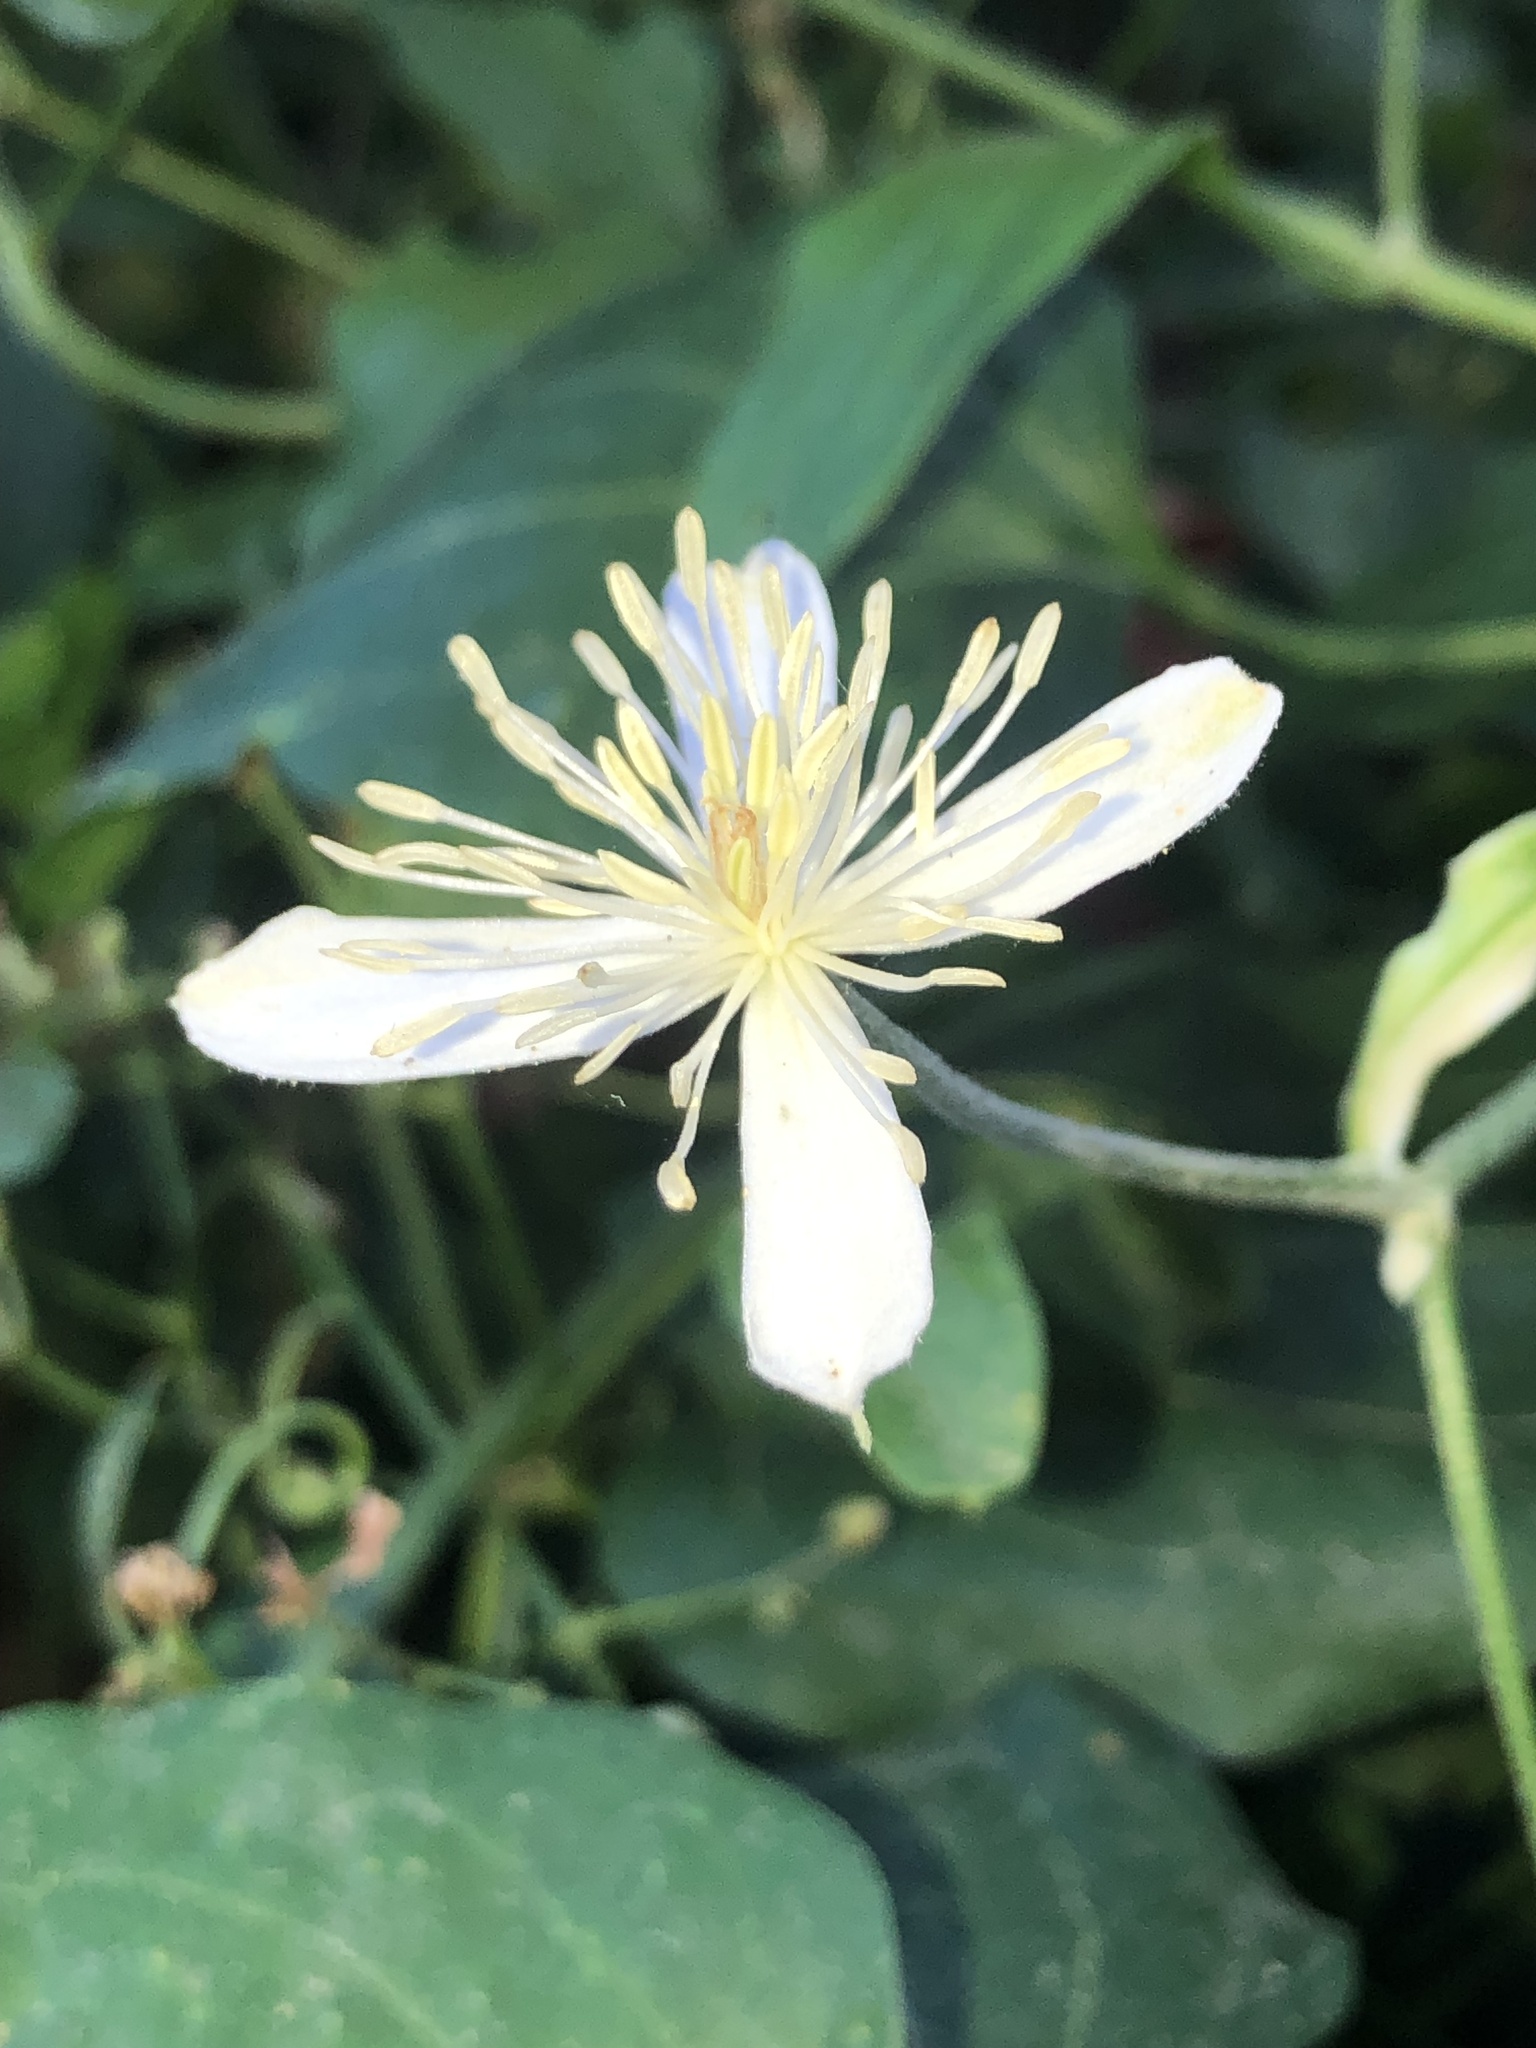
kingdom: Plantae
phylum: Tracheophyta
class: Magnoliopsida
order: Ranunculales
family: Ranunculaceae
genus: Clematis
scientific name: Clematis terniflora
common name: Sweet autumn clematis
